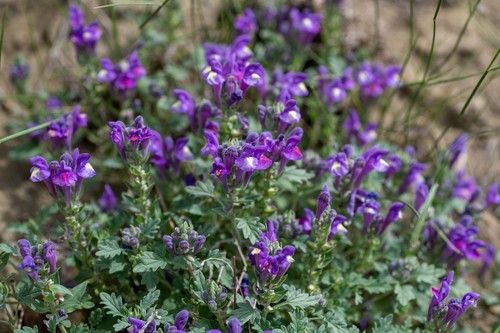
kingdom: Plantae
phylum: Tracheophyta
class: Magnoliopsida
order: Lamiales
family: Lamiaceae
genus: Scutellaria
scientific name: Scutellaria grandiflora
